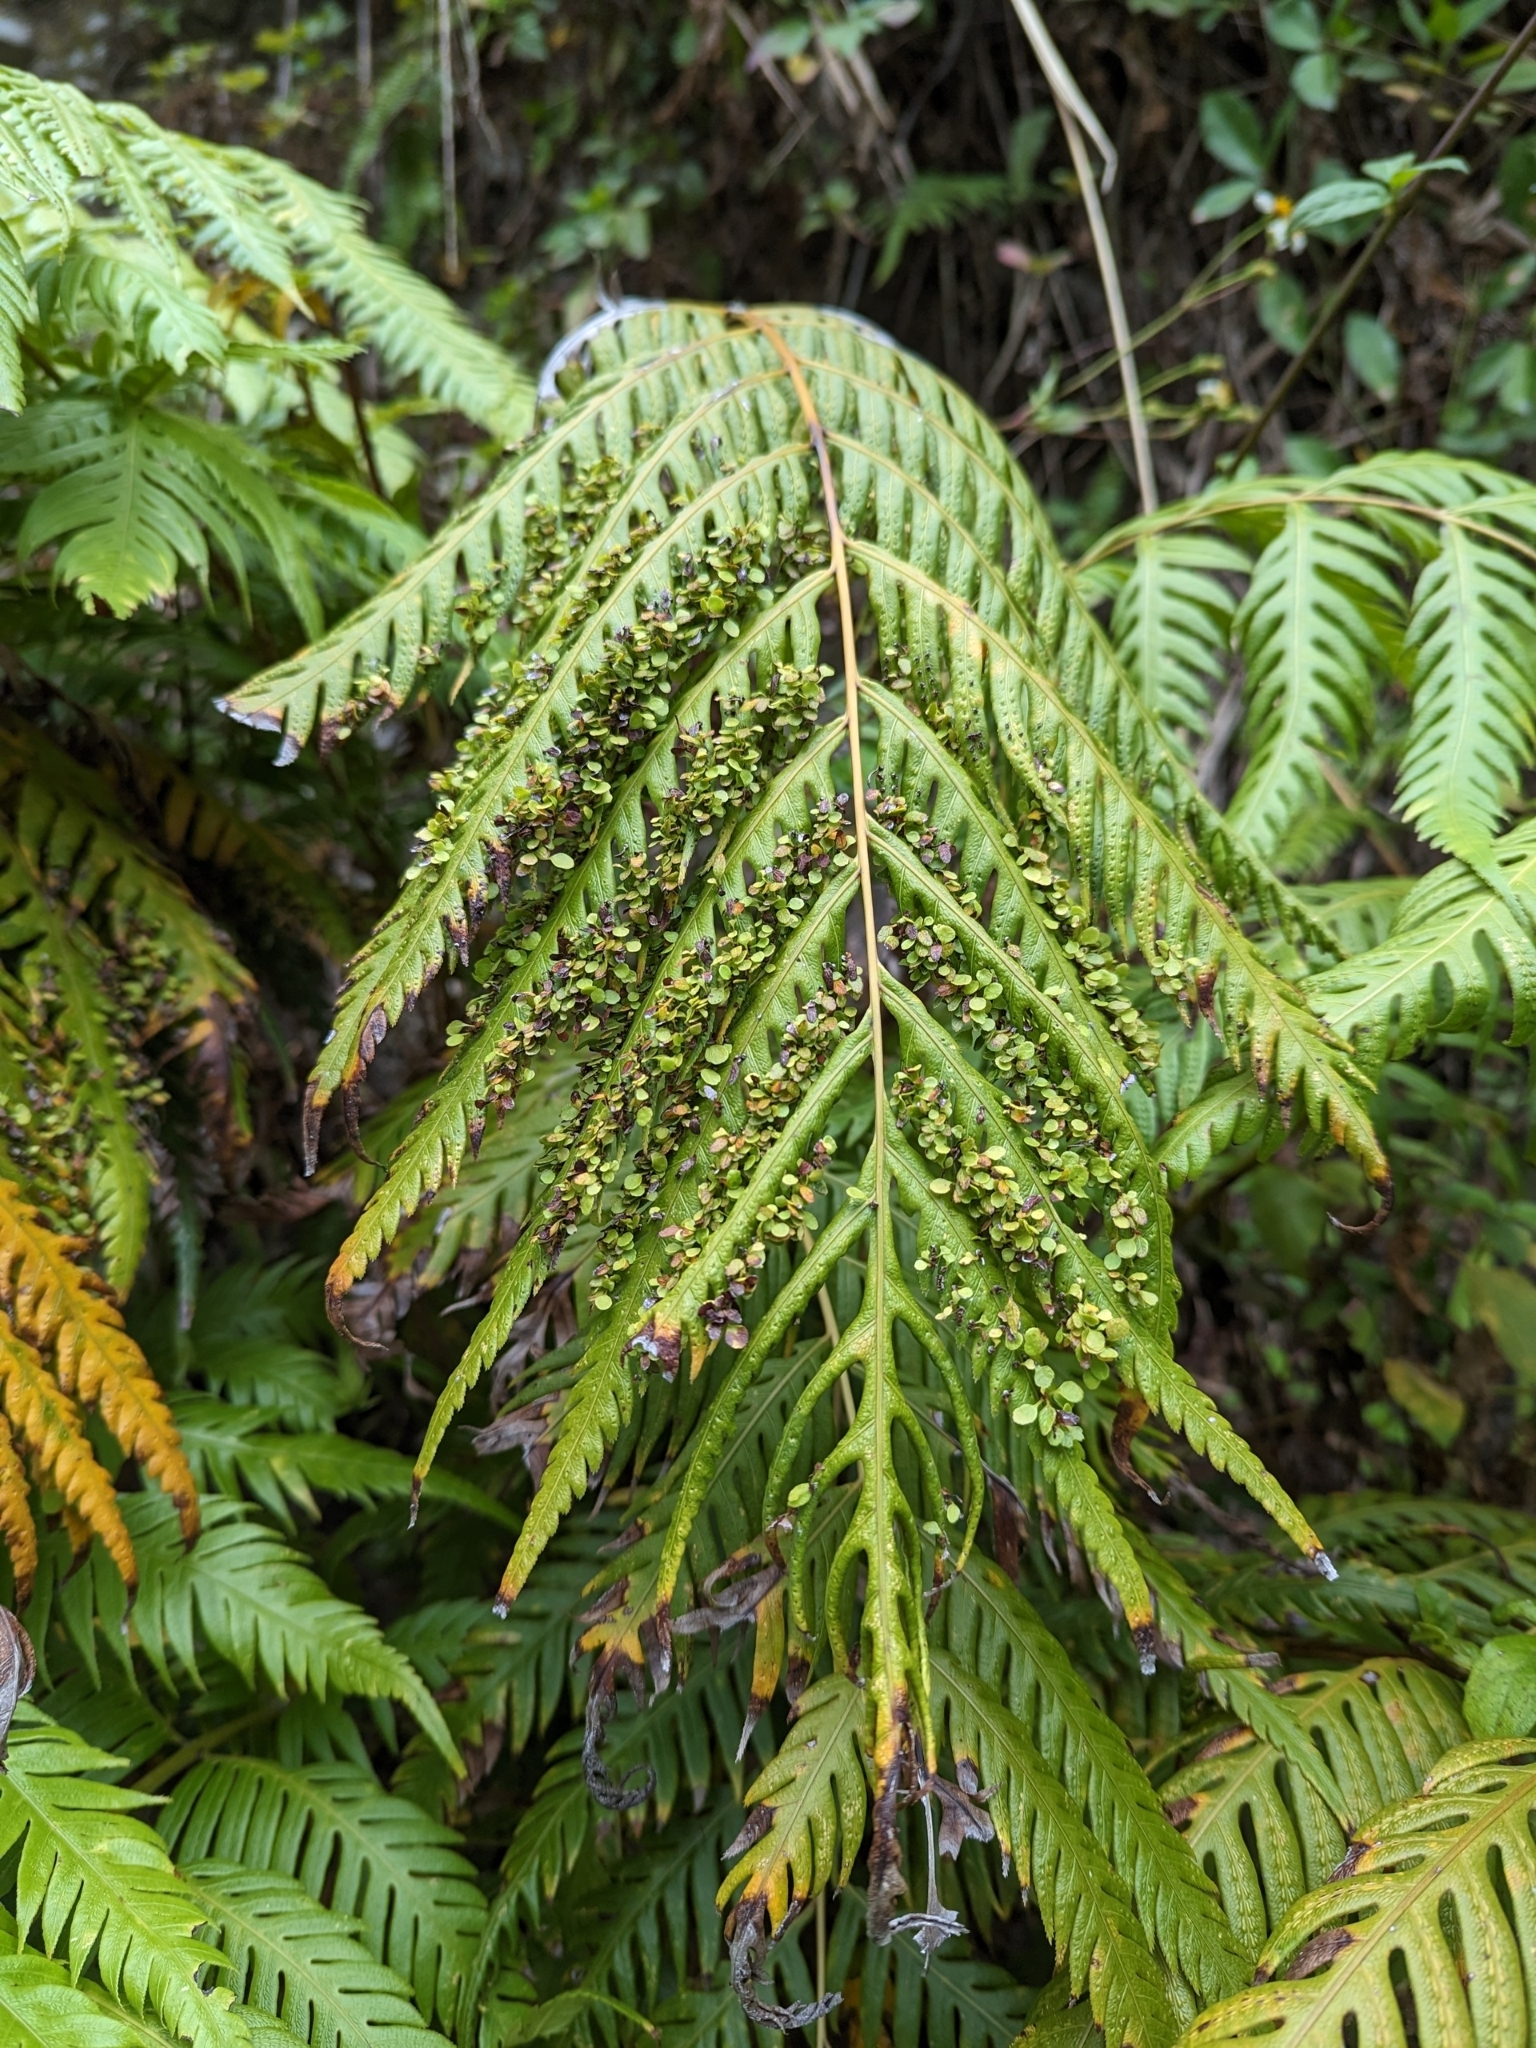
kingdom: Plantae
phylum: Tracheophyta
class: Polypodiopsida
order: Polypodiales
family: Blechnaceae
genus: Woodwardia
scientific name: Woodwardia prolifera
